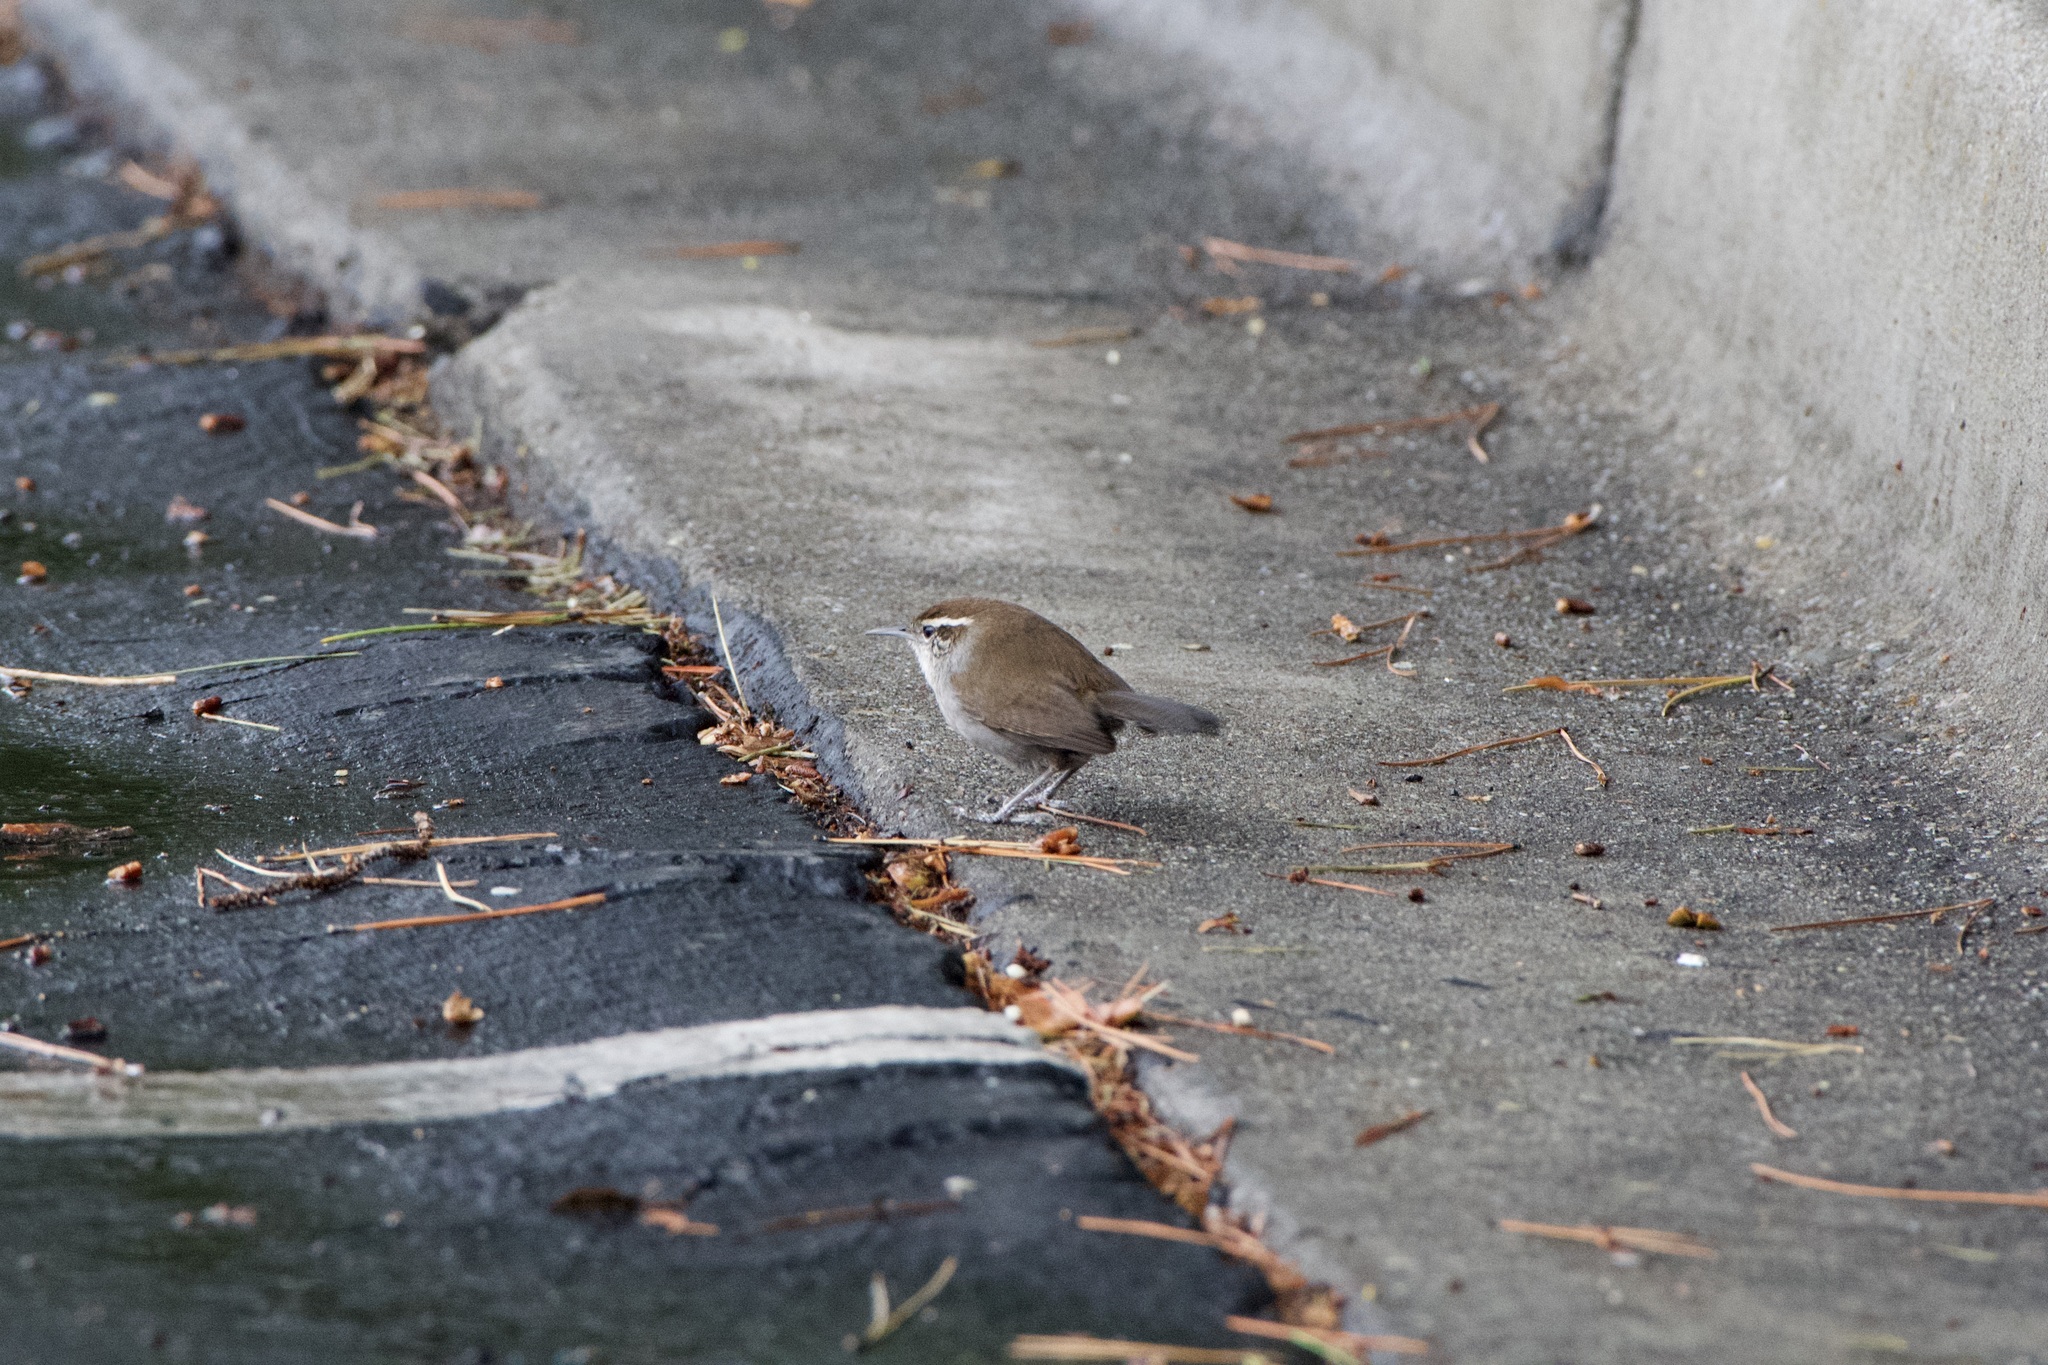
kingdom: Animalia
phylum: Chordata
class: Aves
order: Passeriformes
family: Troglodytidae
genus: Thryomanes
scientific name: Thryomanes bewickii
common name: Bewick's wren
